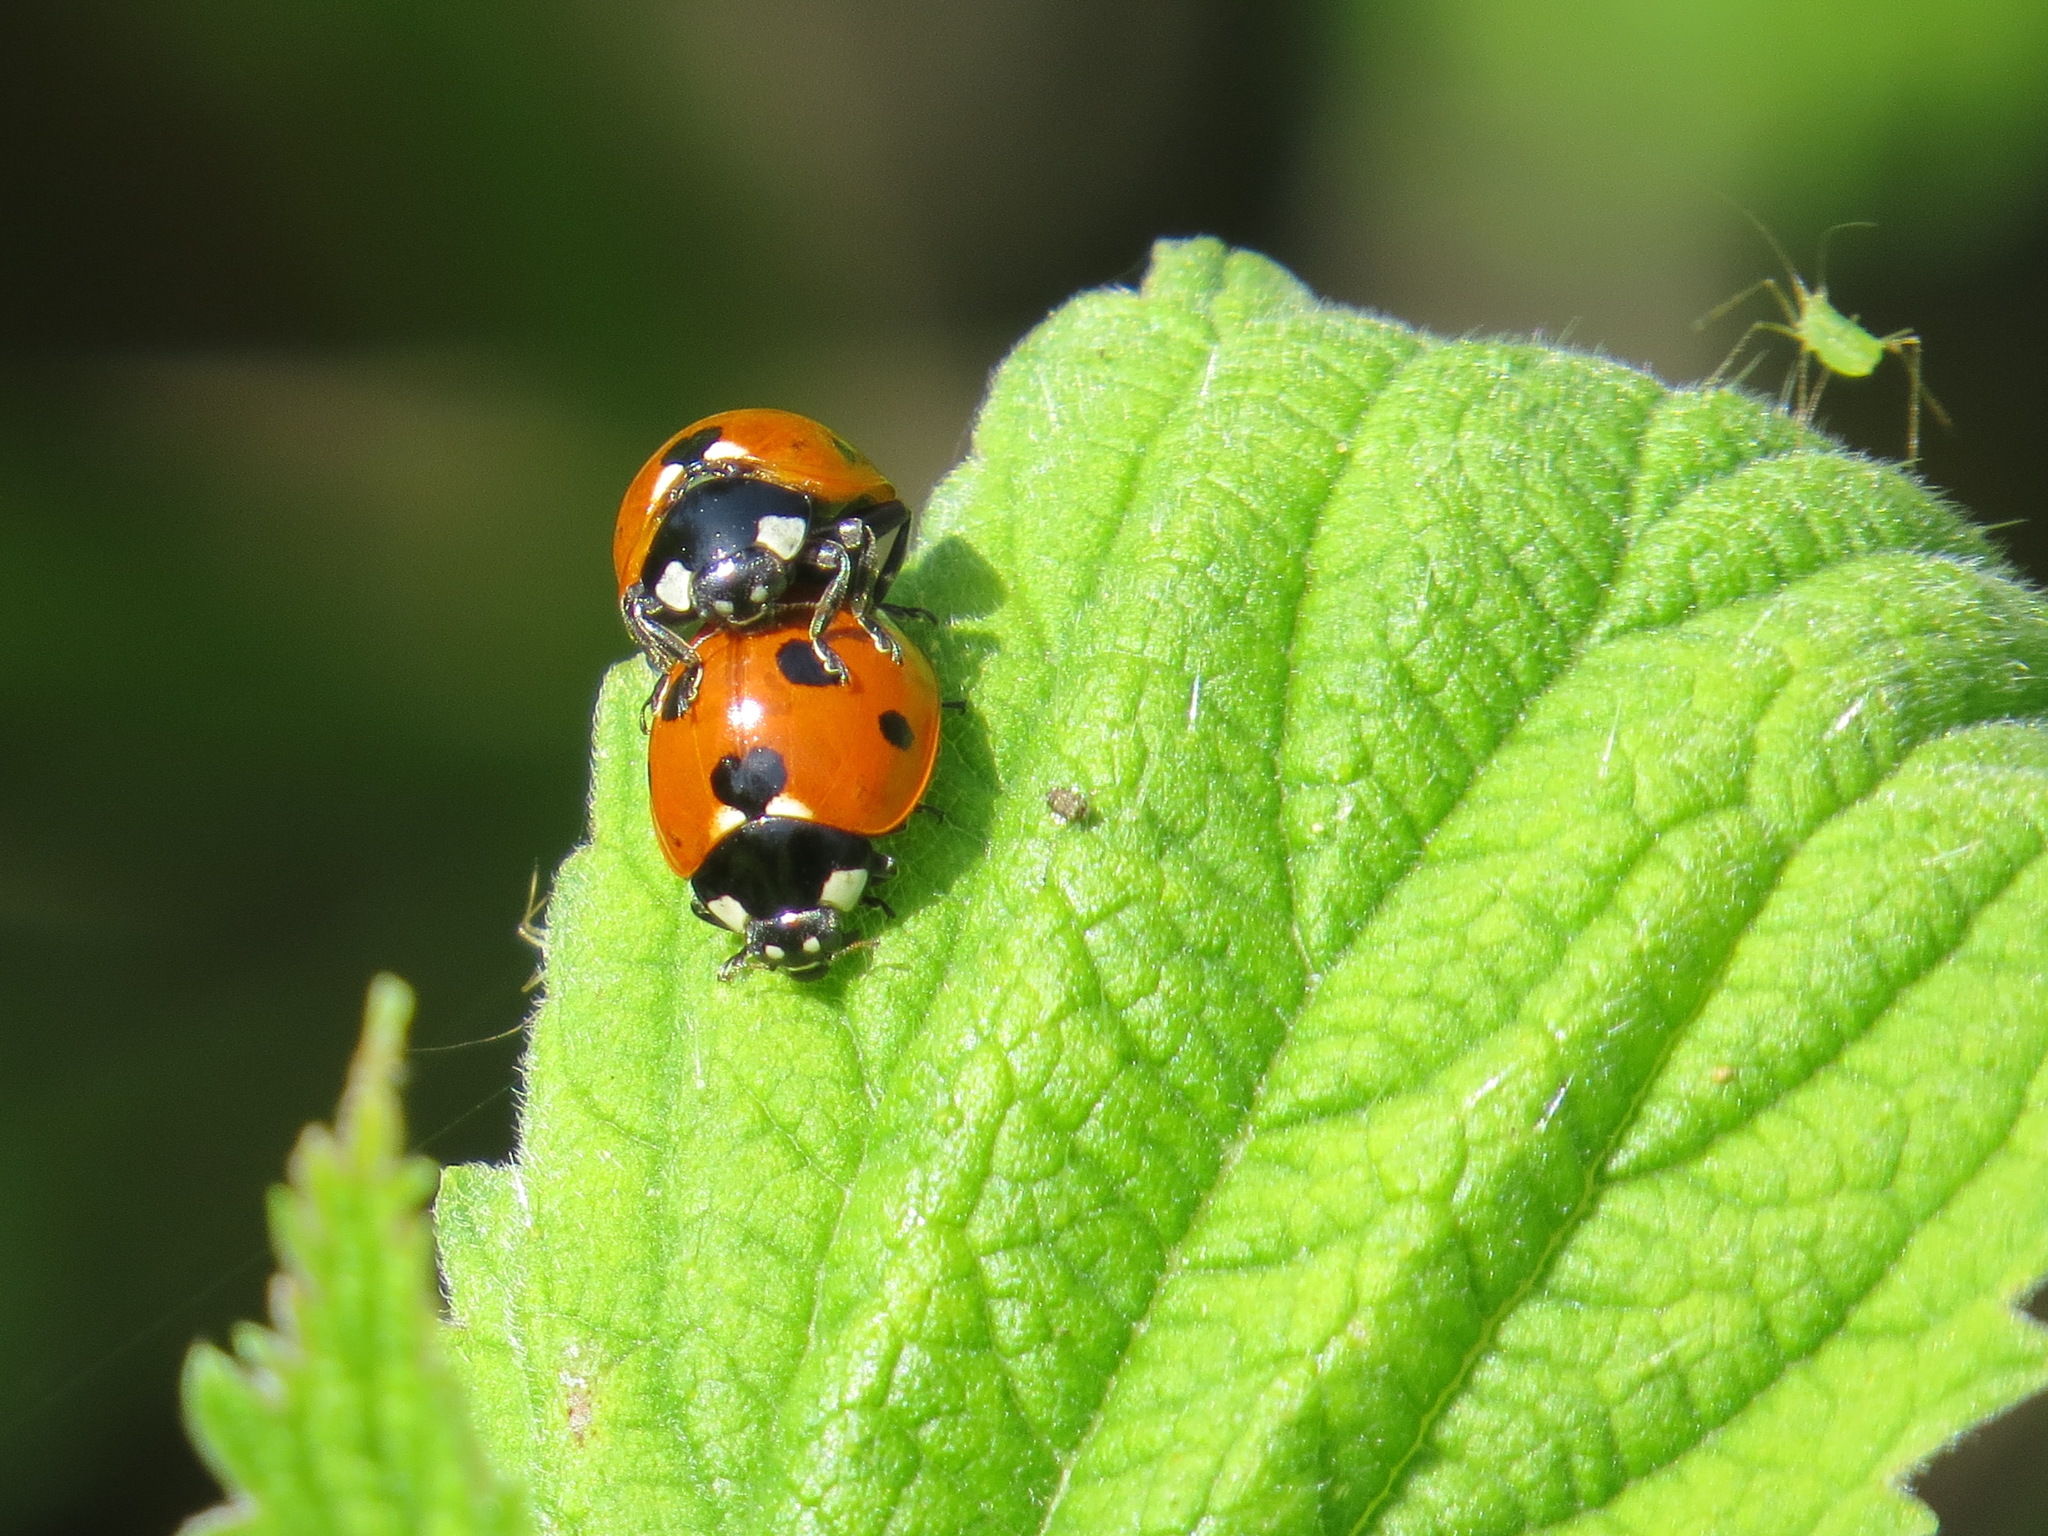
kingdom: Animalia
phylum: Arthropoda
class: Insecta
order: Coleoptera
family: Coccinellidae
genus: Coccinella
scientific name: Coccinella septempunctata
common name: Sevenspotted lady beetle
